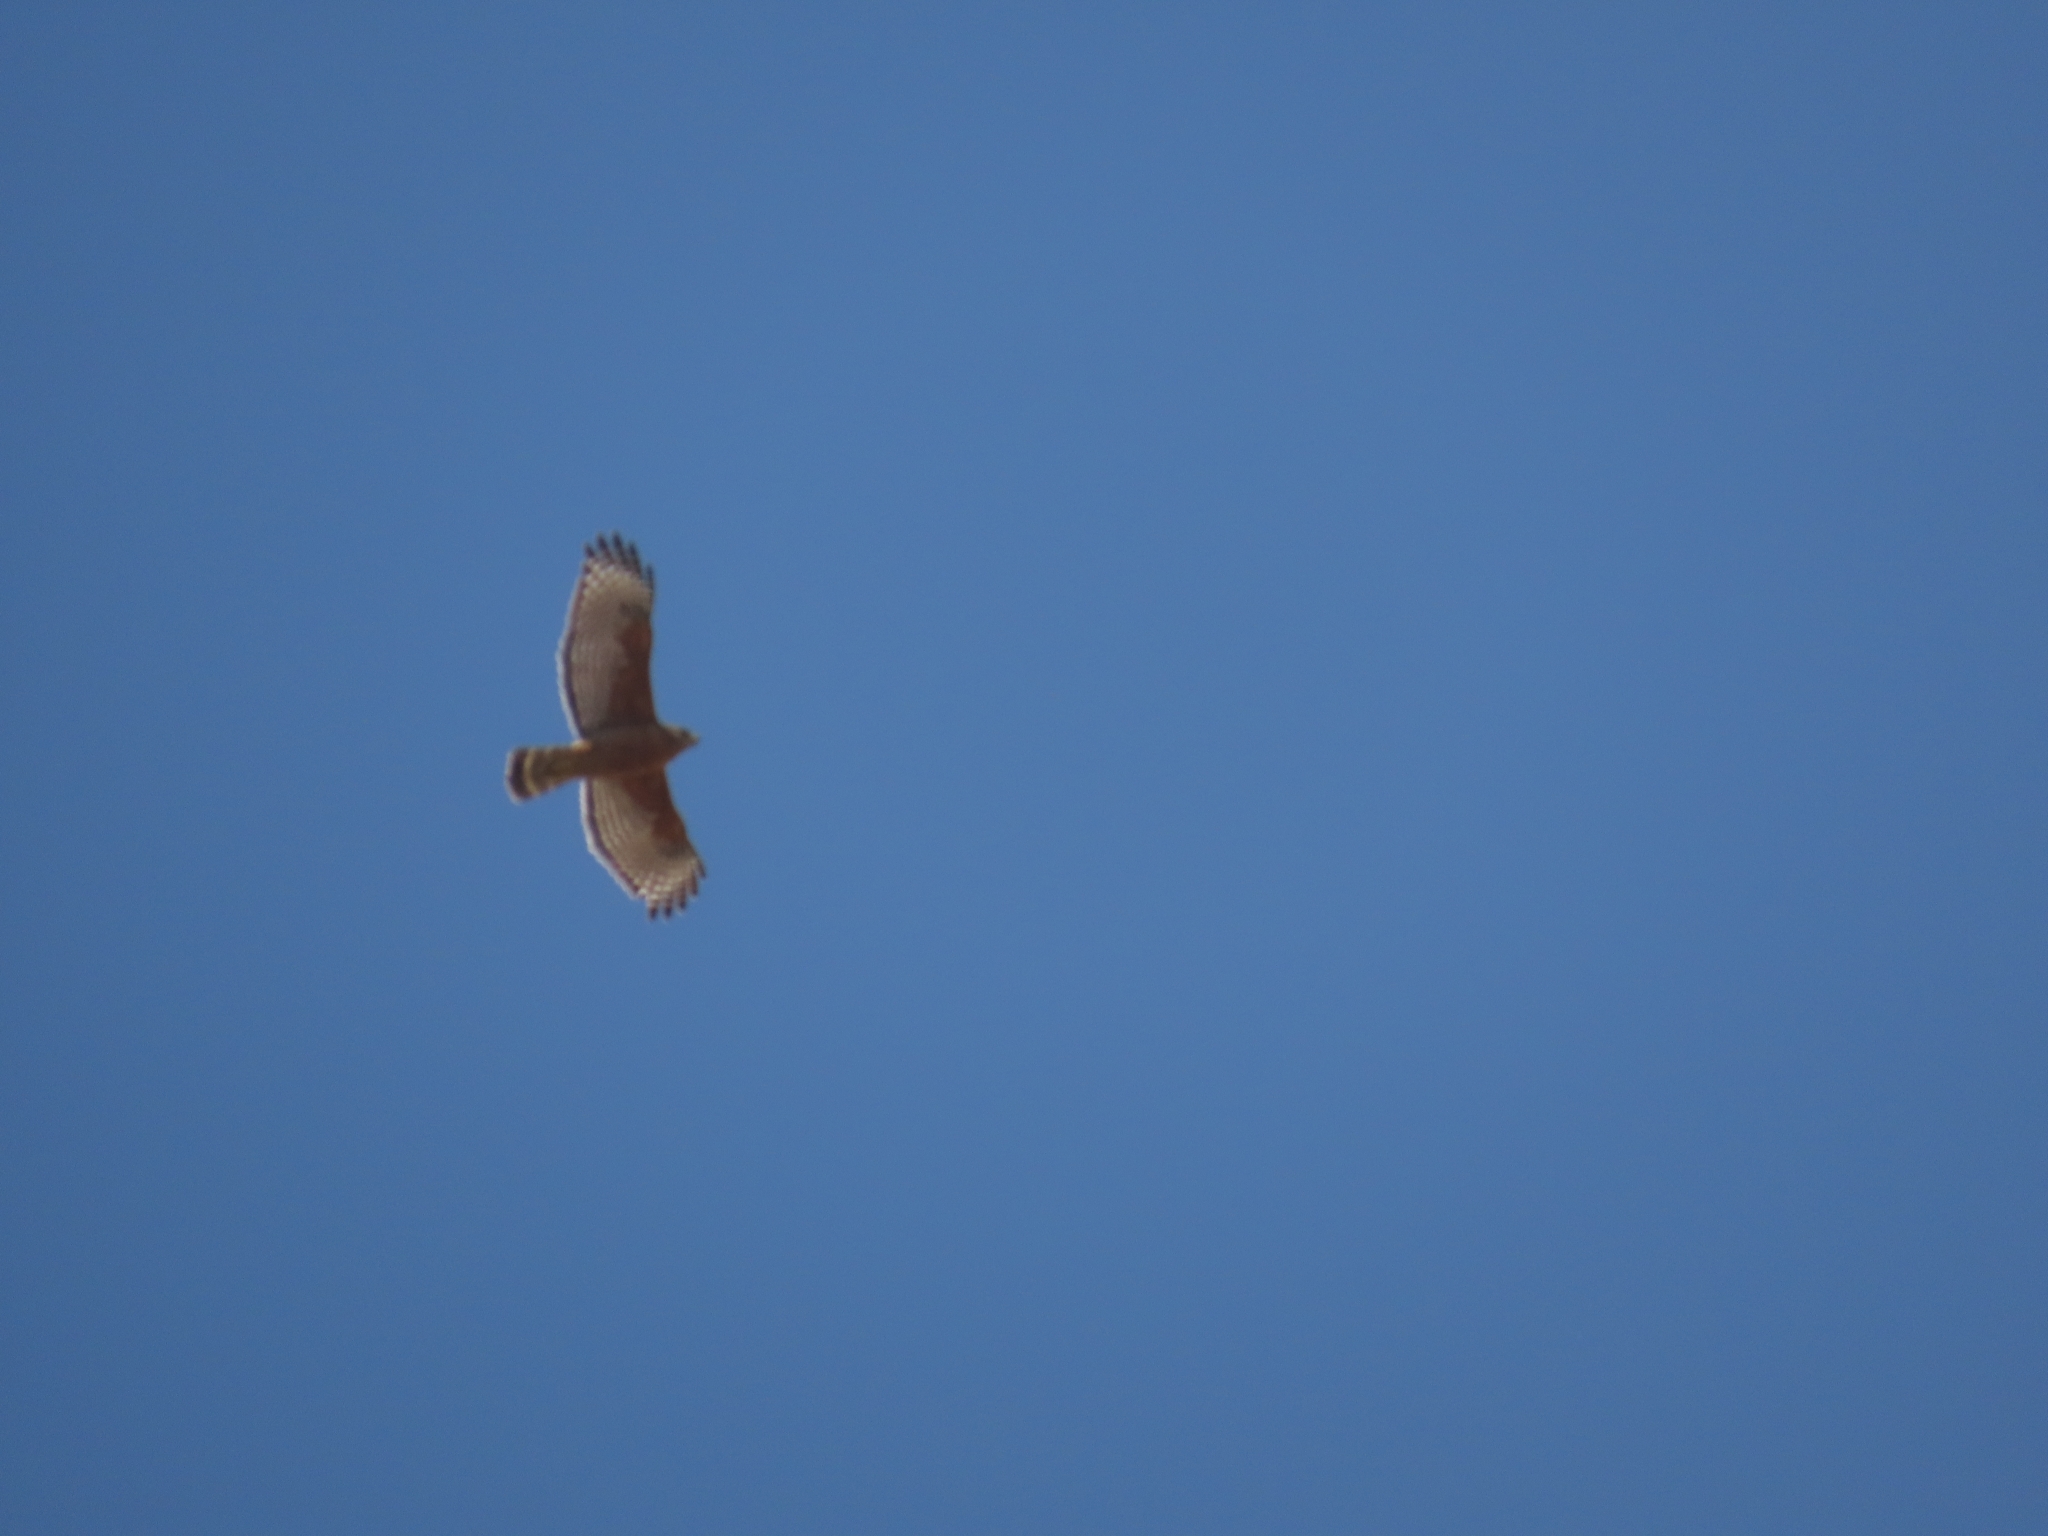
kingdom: Animalia
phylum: Chordata
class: Aves
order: Accipitriformes
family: Accipitridae
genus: Buteo
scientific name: Buteo lineatus
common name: Red-shouldered hawk
